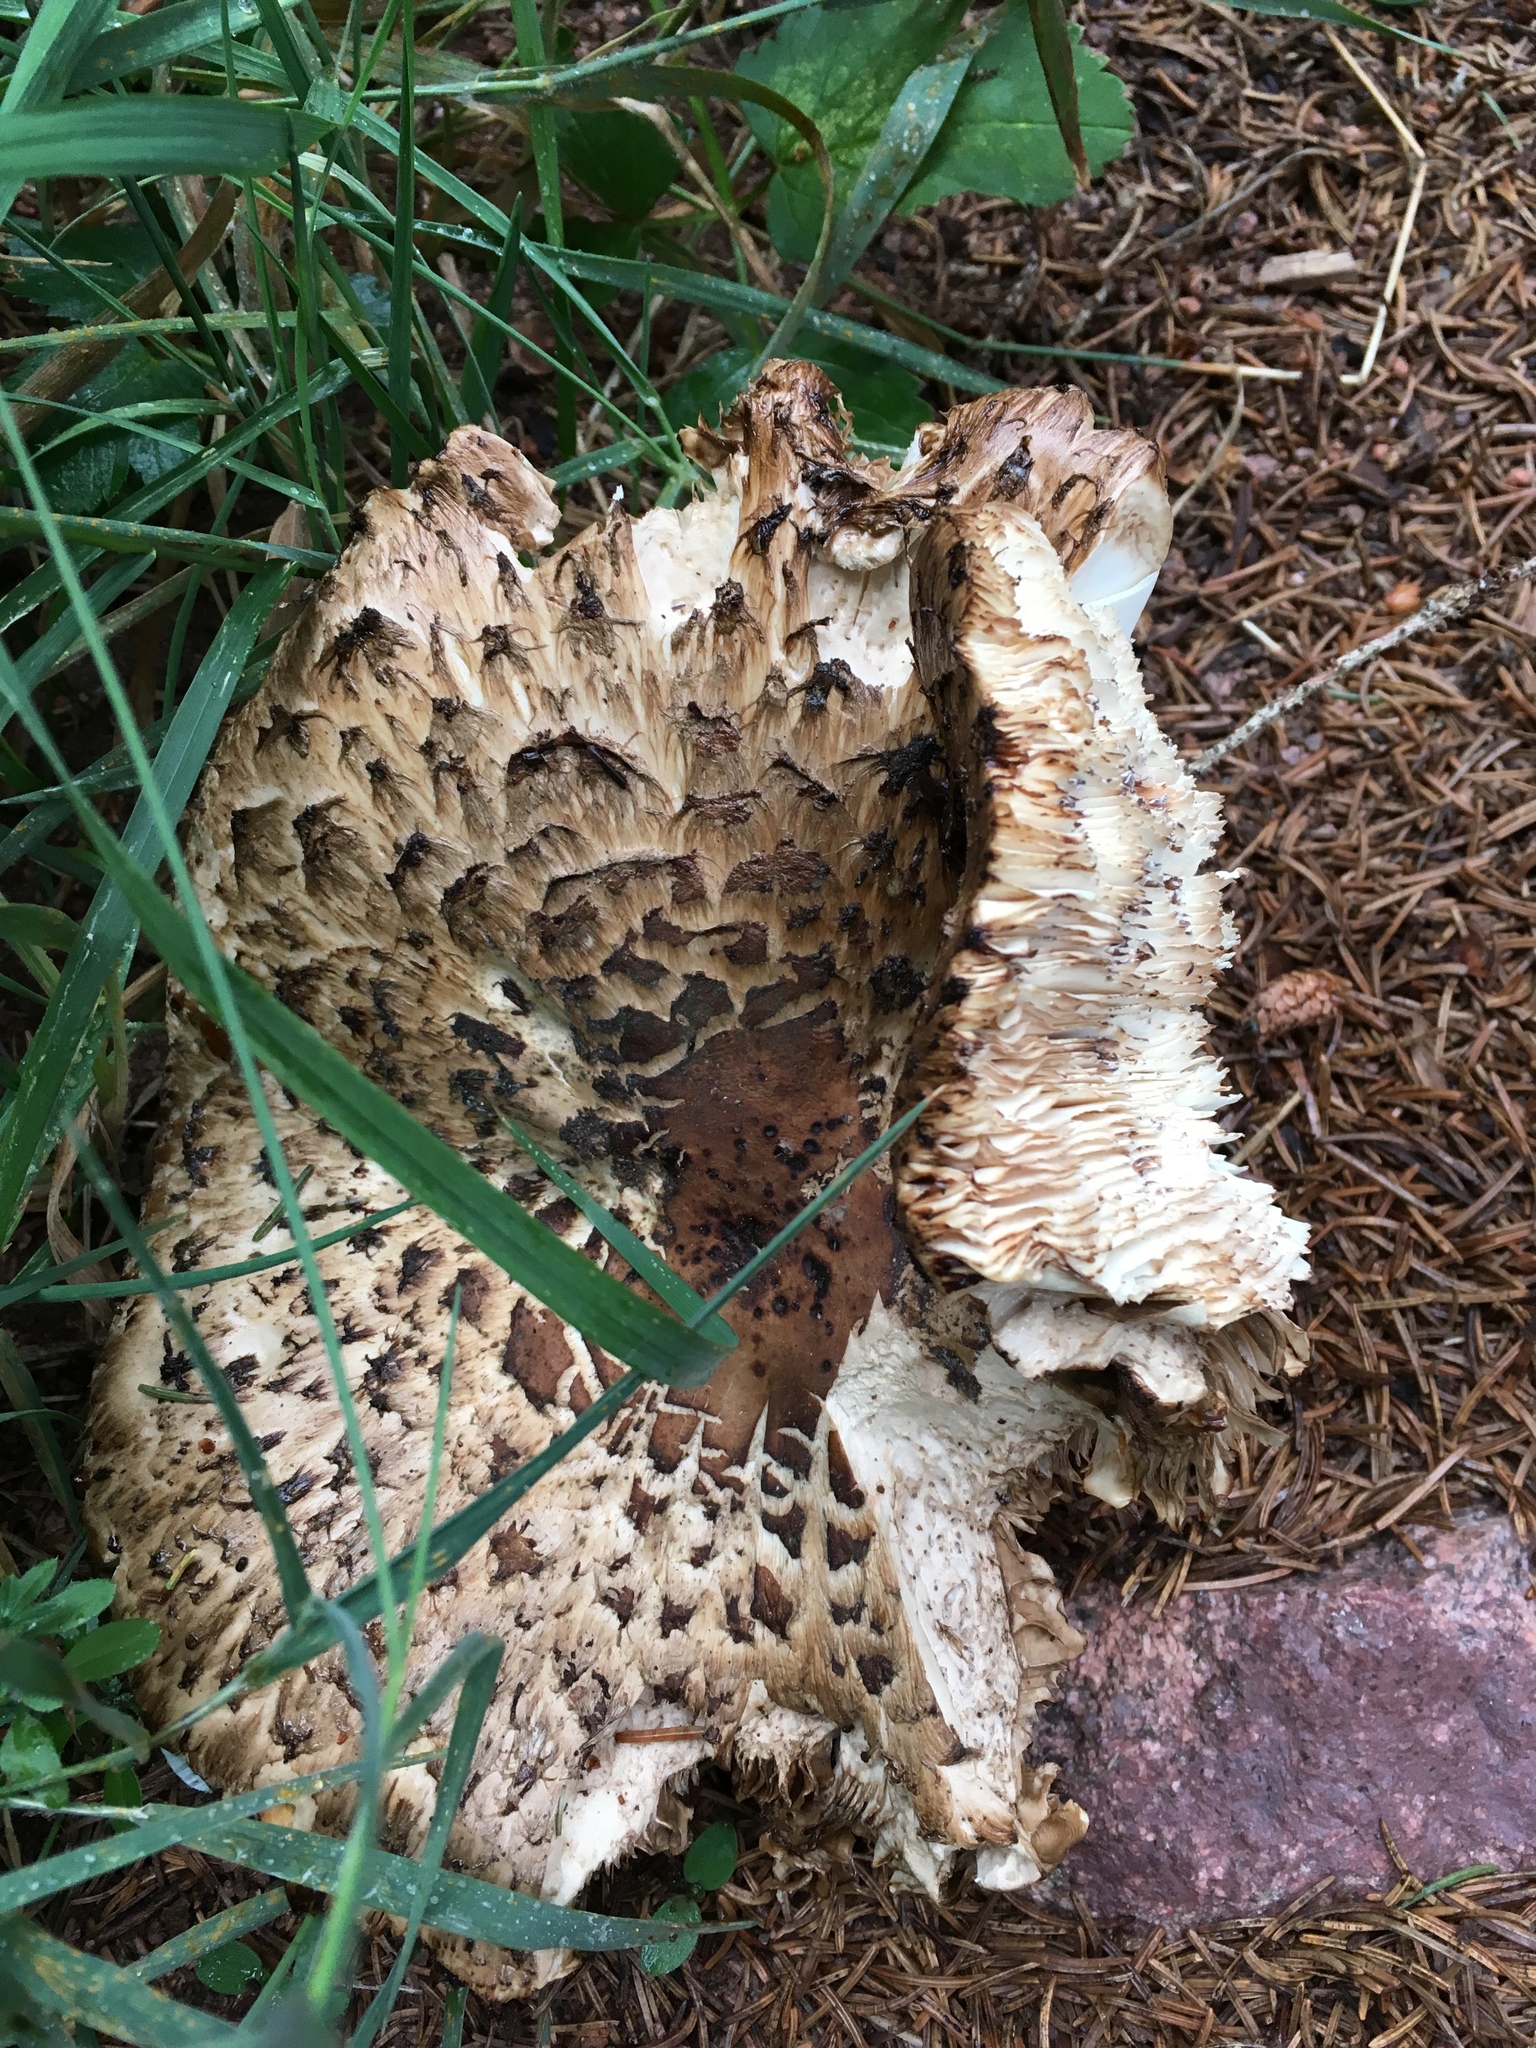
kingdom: Fungi
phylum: Basidiomycota
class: Agaricomycetes
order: Agaricales
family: Agaricaceae
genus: Chlorophyllum
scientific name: Chlorophyllum brunneum
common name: Brown parasol
